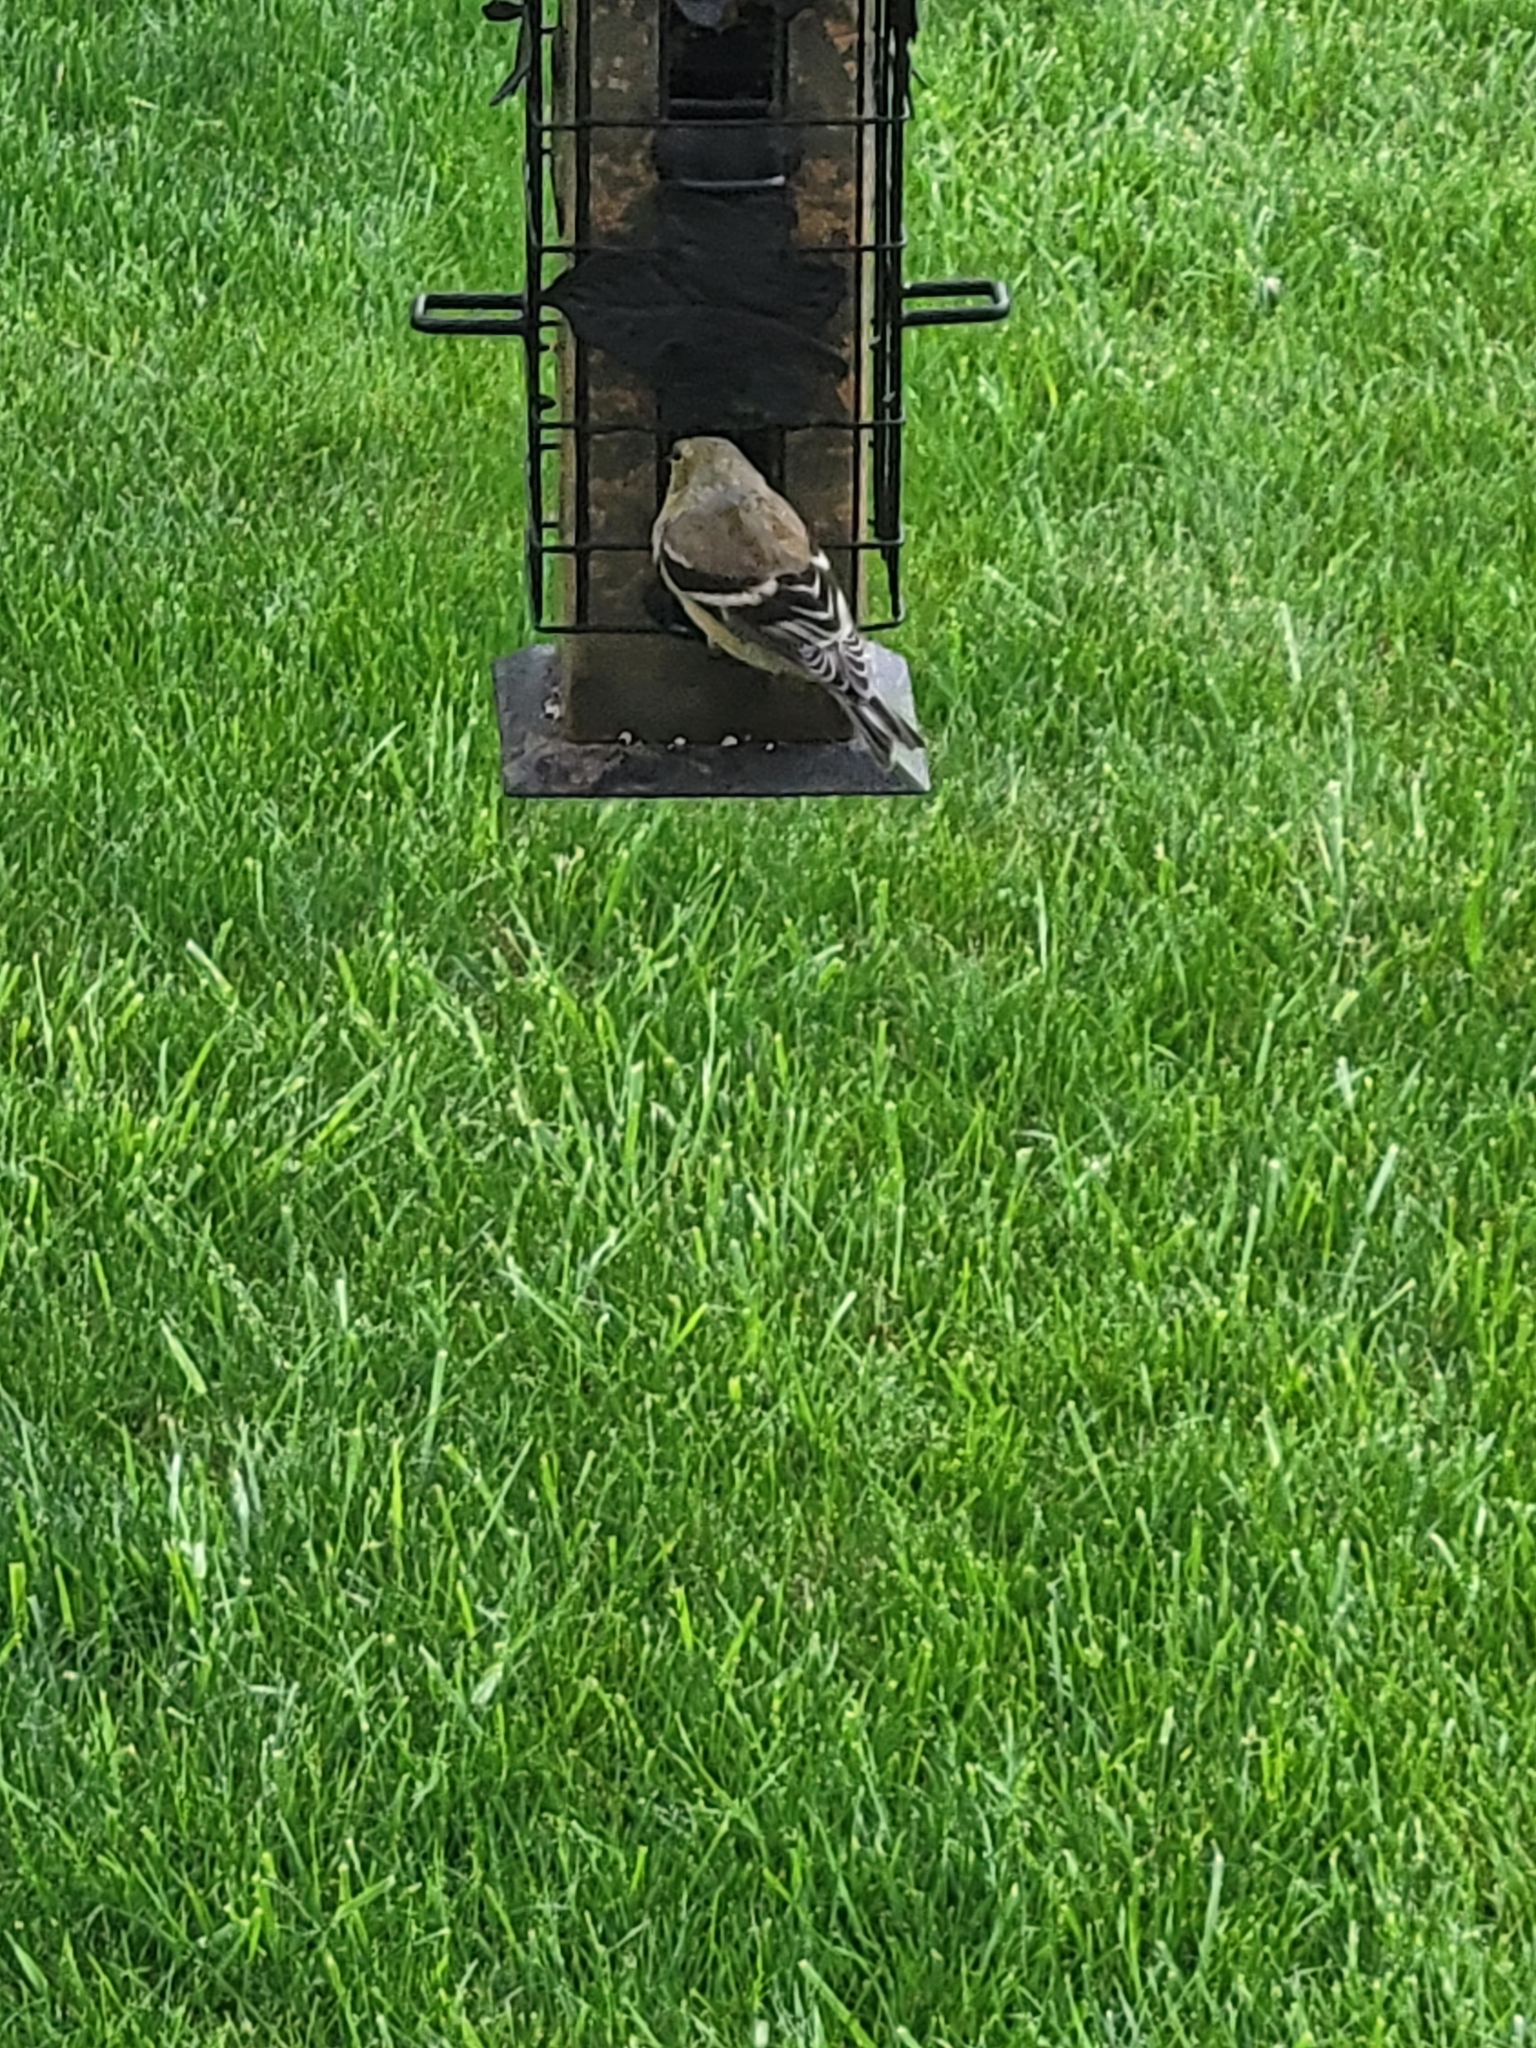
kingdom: Animalia
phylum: Chordata
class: Aves
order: Passeriformes
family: Fringillidae
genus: Spinus
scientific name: Spinus tristis
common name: American goldfinch
